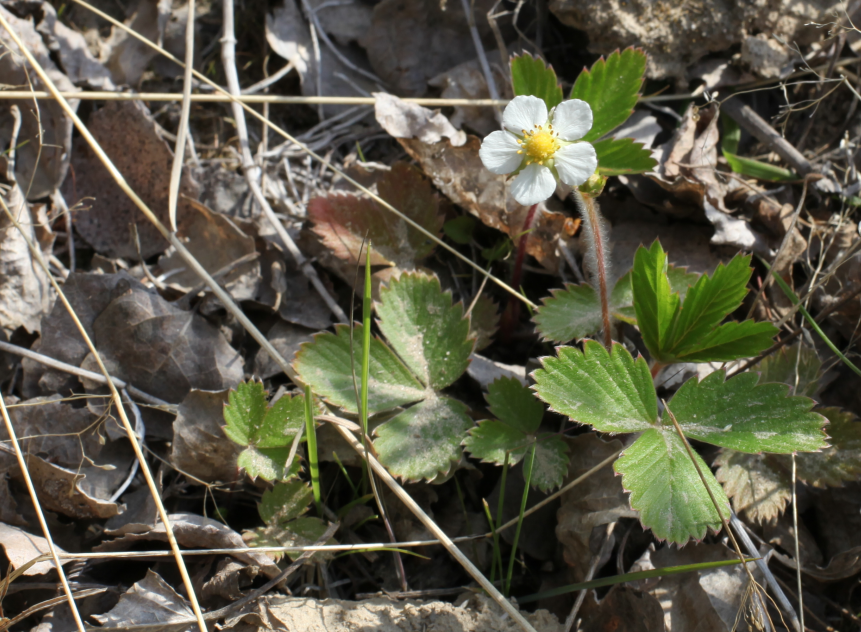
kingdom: Plantae
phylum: Tracheophyta
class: Magnoliopsida
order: Rosales
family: Rosaceae
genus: Fragaria
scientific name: Fragaria vesca
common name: Wild strawberry
